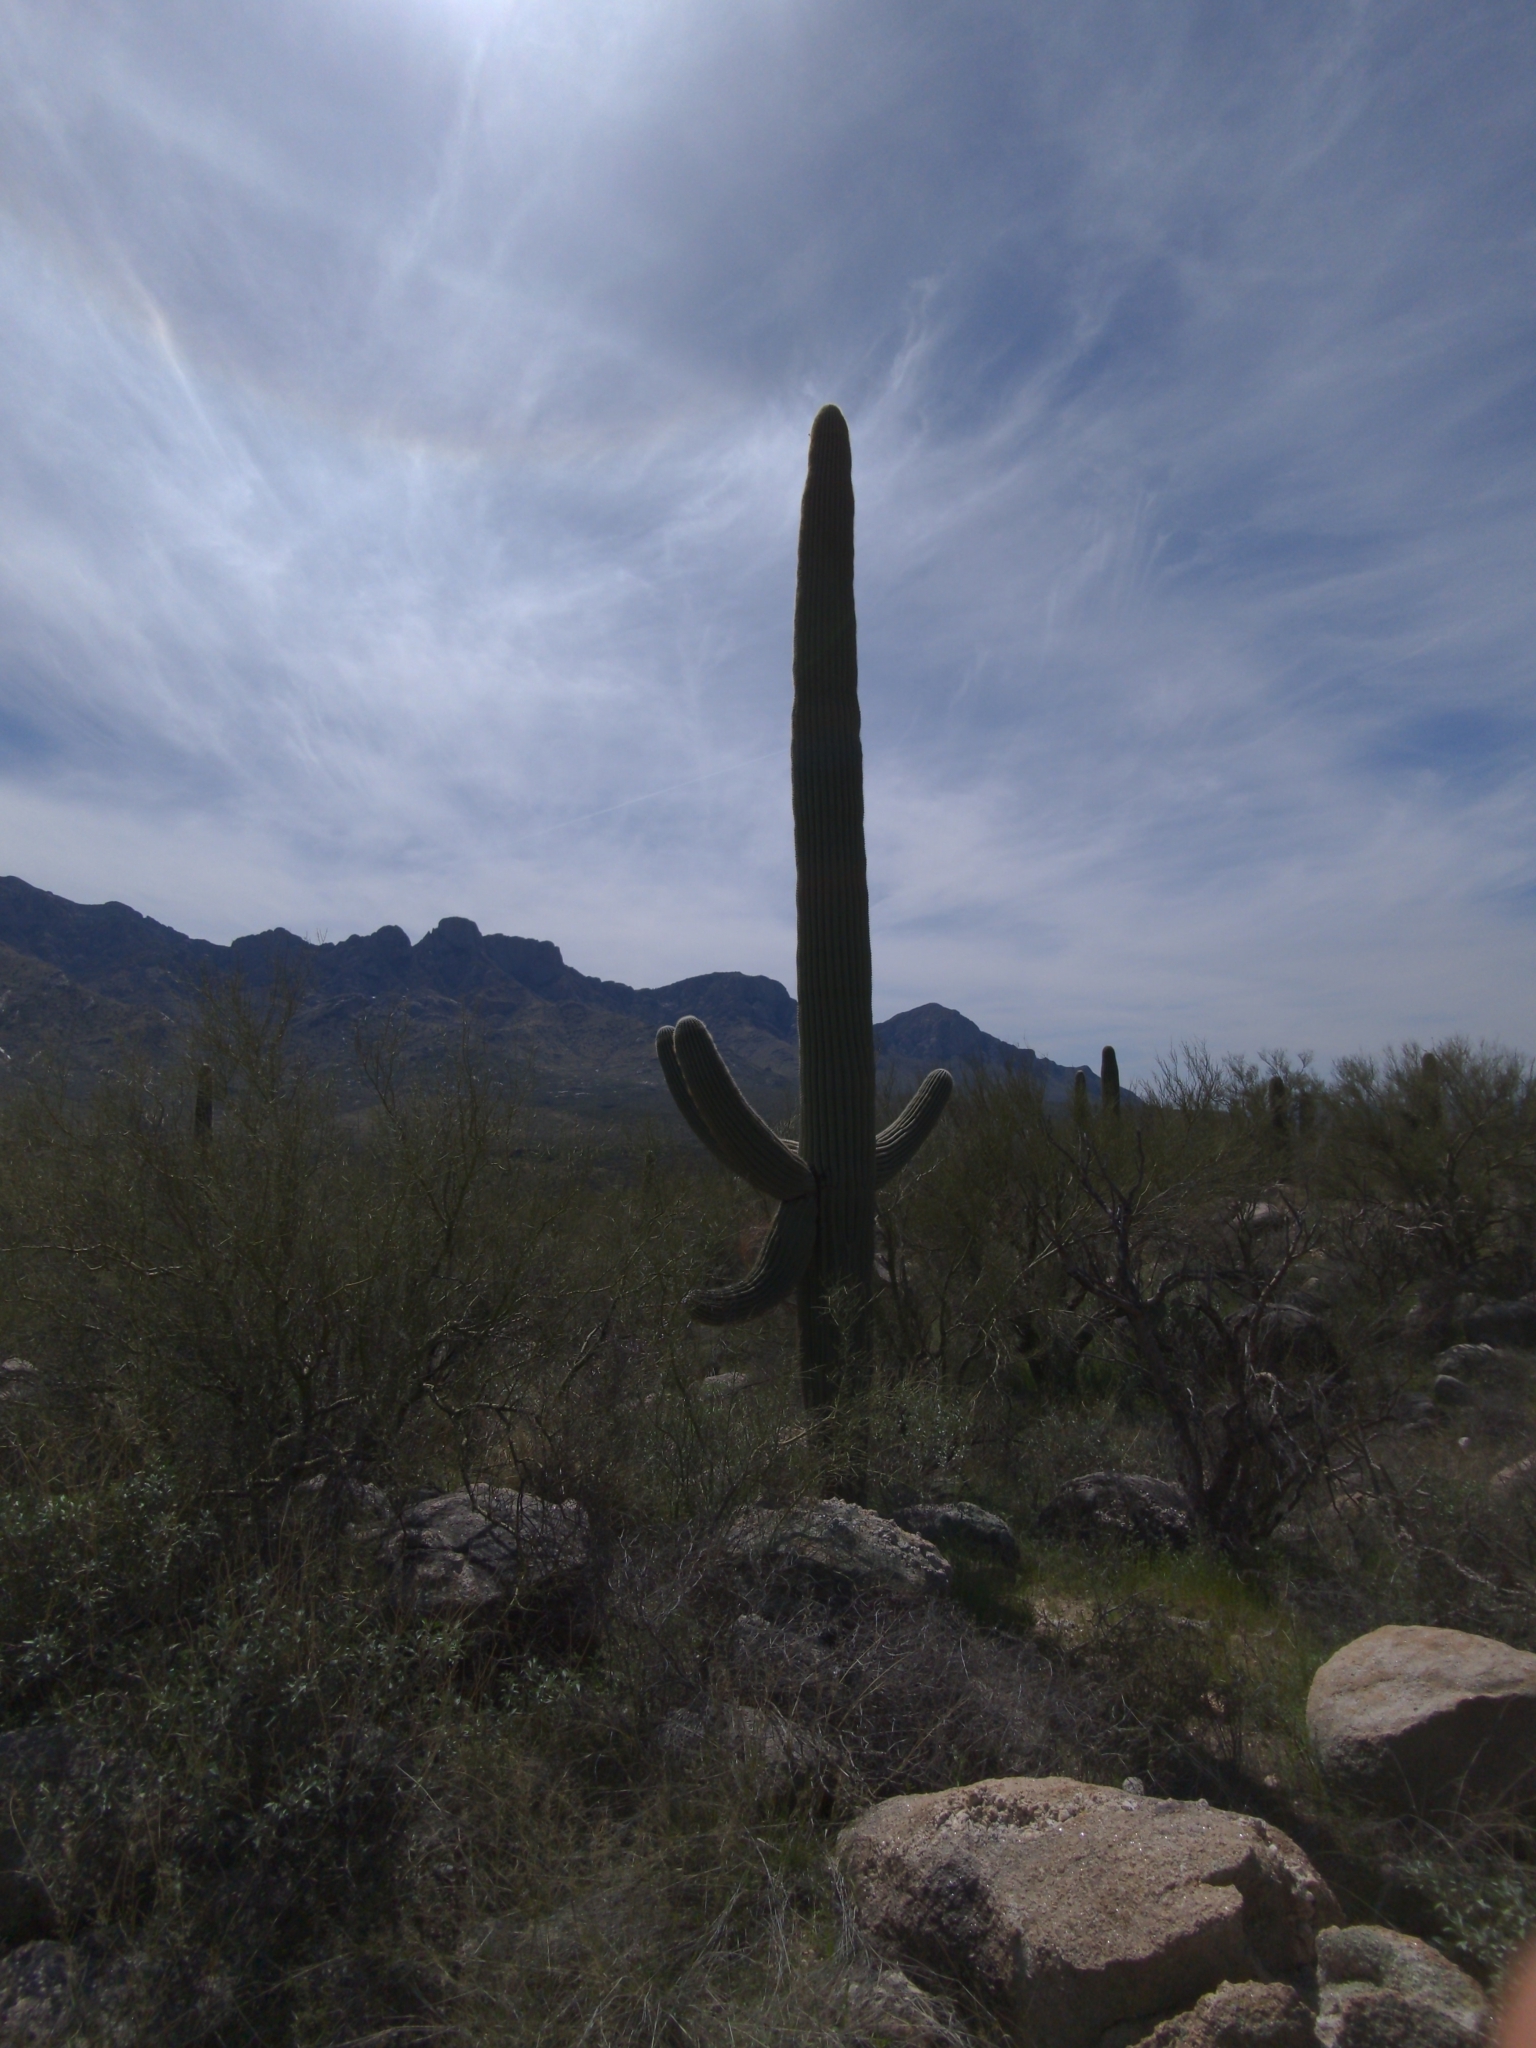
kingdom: Plantae
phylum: Tracheophyta
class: Magnoliopsida
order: Caryophyllales
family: Cactaceae
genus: Carnegiea
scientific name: Carnegiea gigantea
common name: Saguaro
